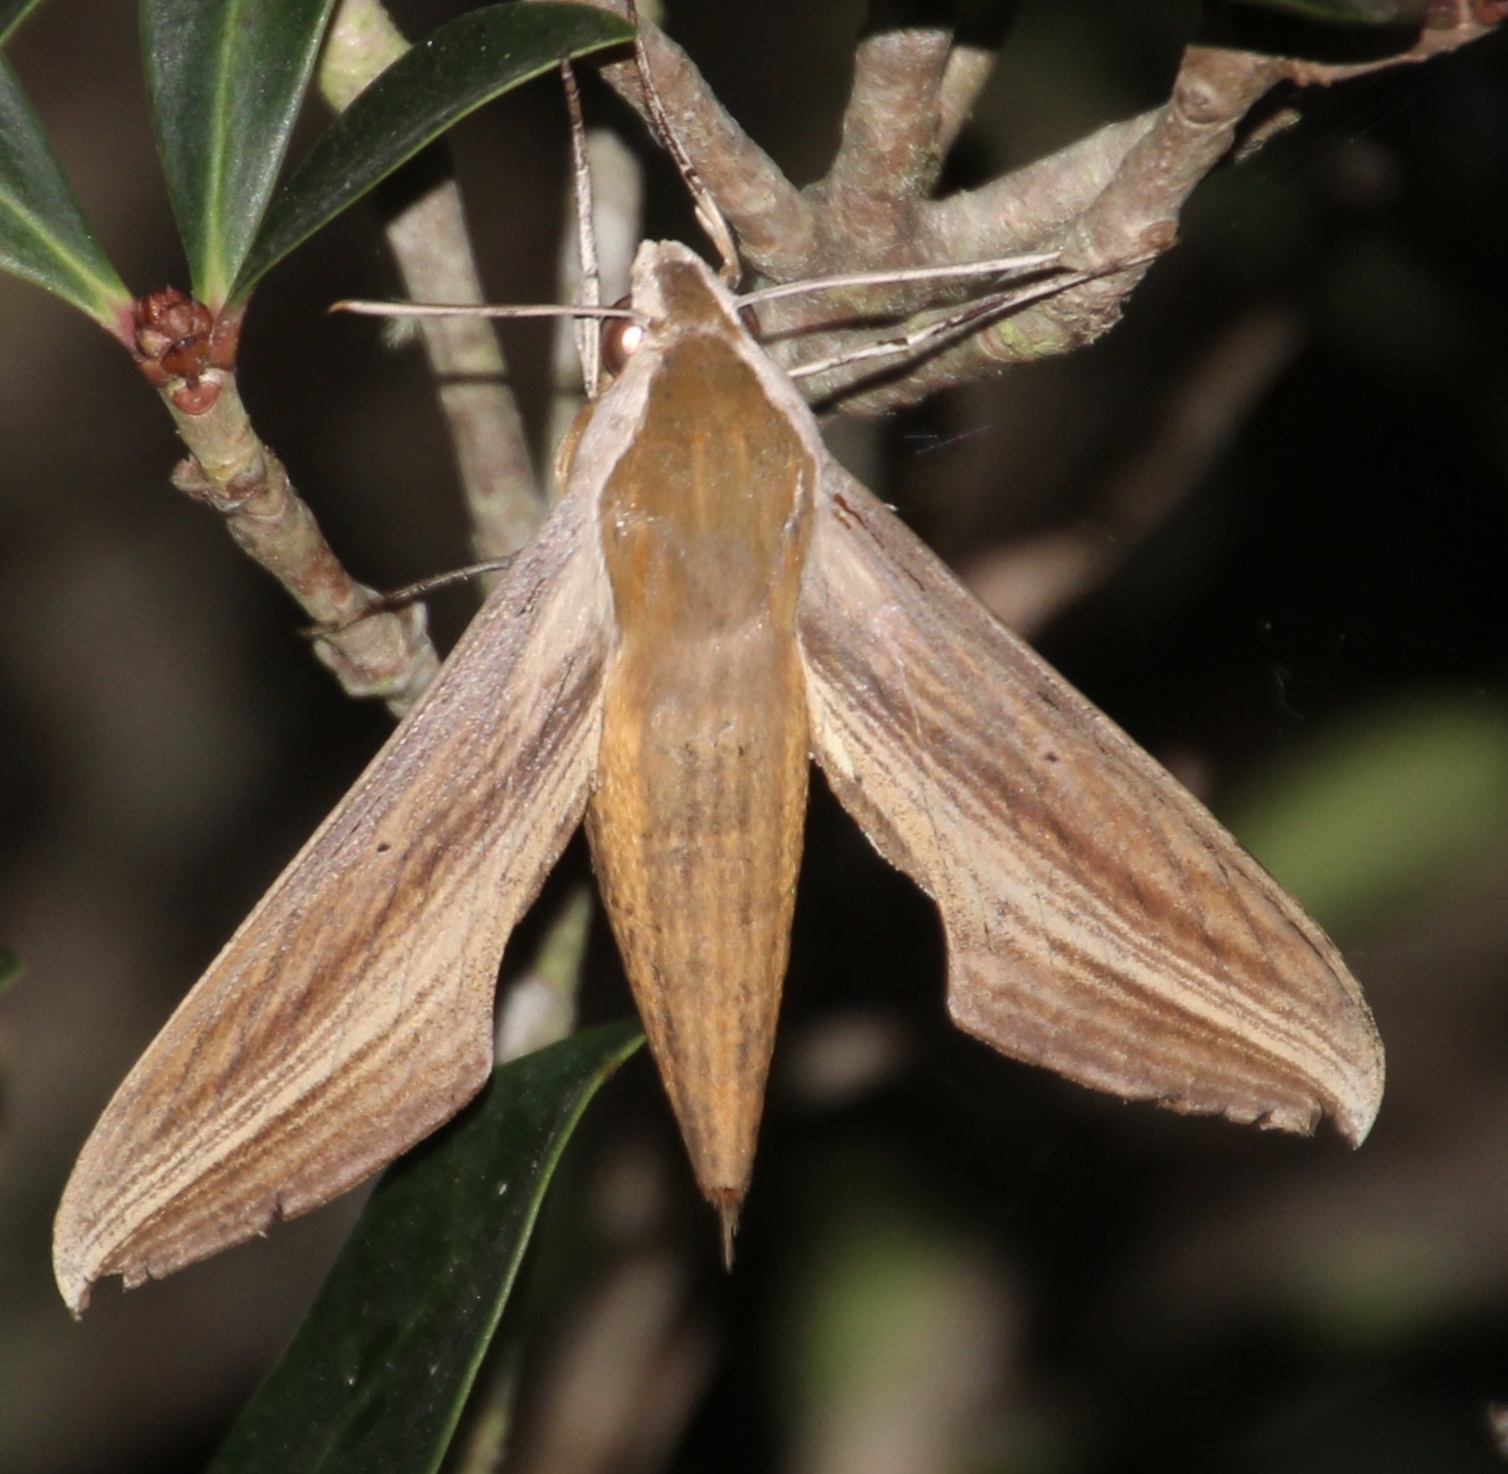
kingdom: Animalia
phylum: Arthropoda
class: Insecta
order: Lepidoptera
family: Sphingidae
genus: Xylophanes
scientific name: Xylophanes tersa
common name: Tersa sphinx
